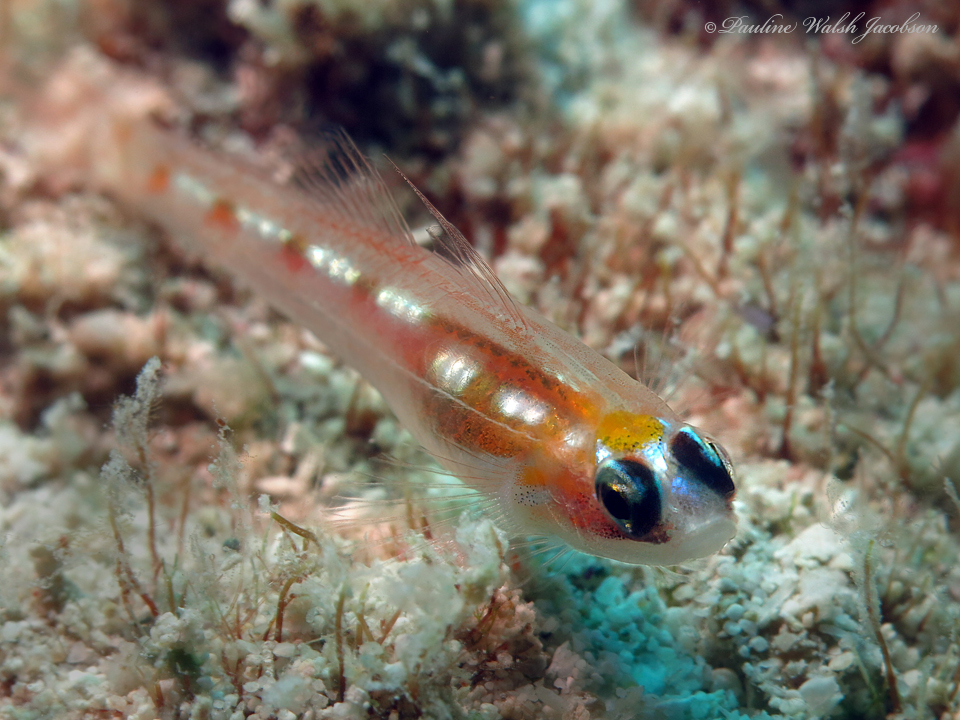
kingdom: Animalia
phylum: Chordata
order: Perciformes
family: Gobiidae
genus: Coryphopterus
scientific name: Coryphopterus hyalinus
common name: Glass goby
